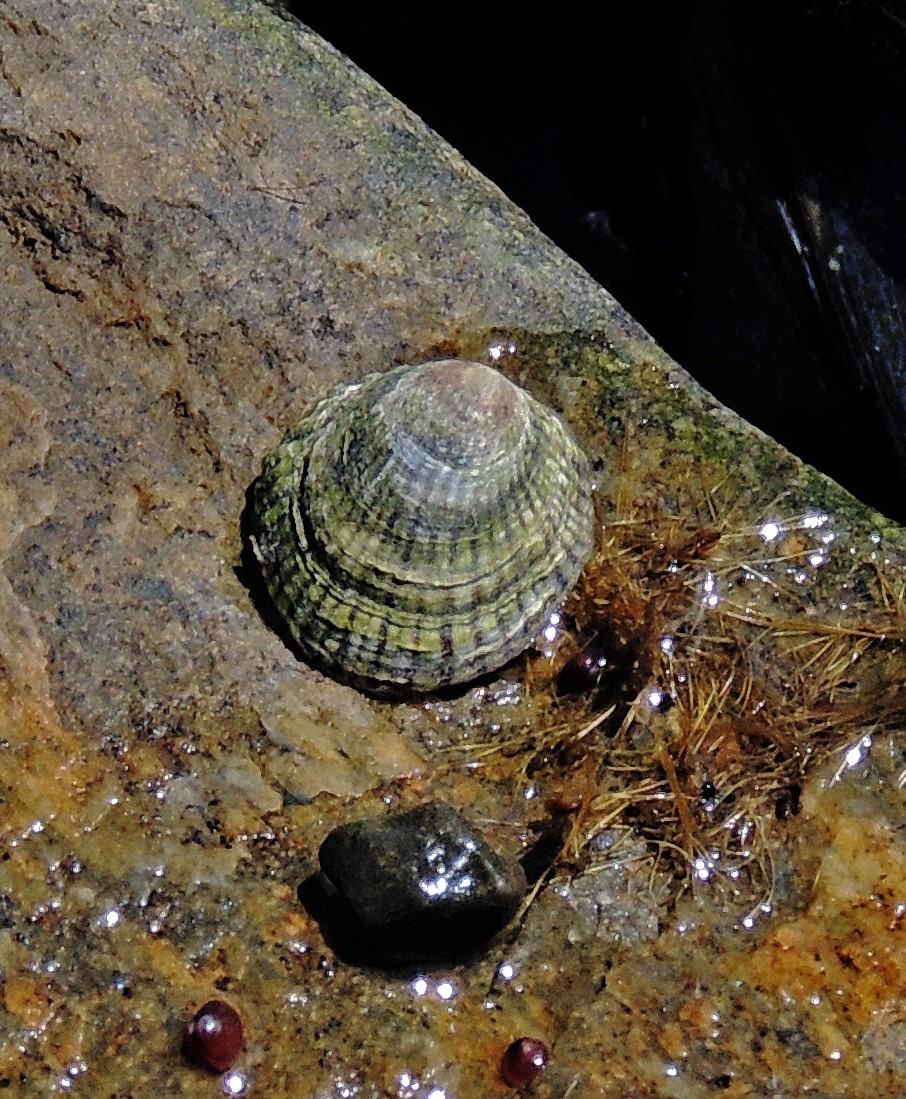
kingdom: Animalia
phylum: Mollusca
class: Gastropoda
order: Siphonariida
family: Siphonariidae
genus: Siphonaria
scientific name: Siphonaria lessonii
